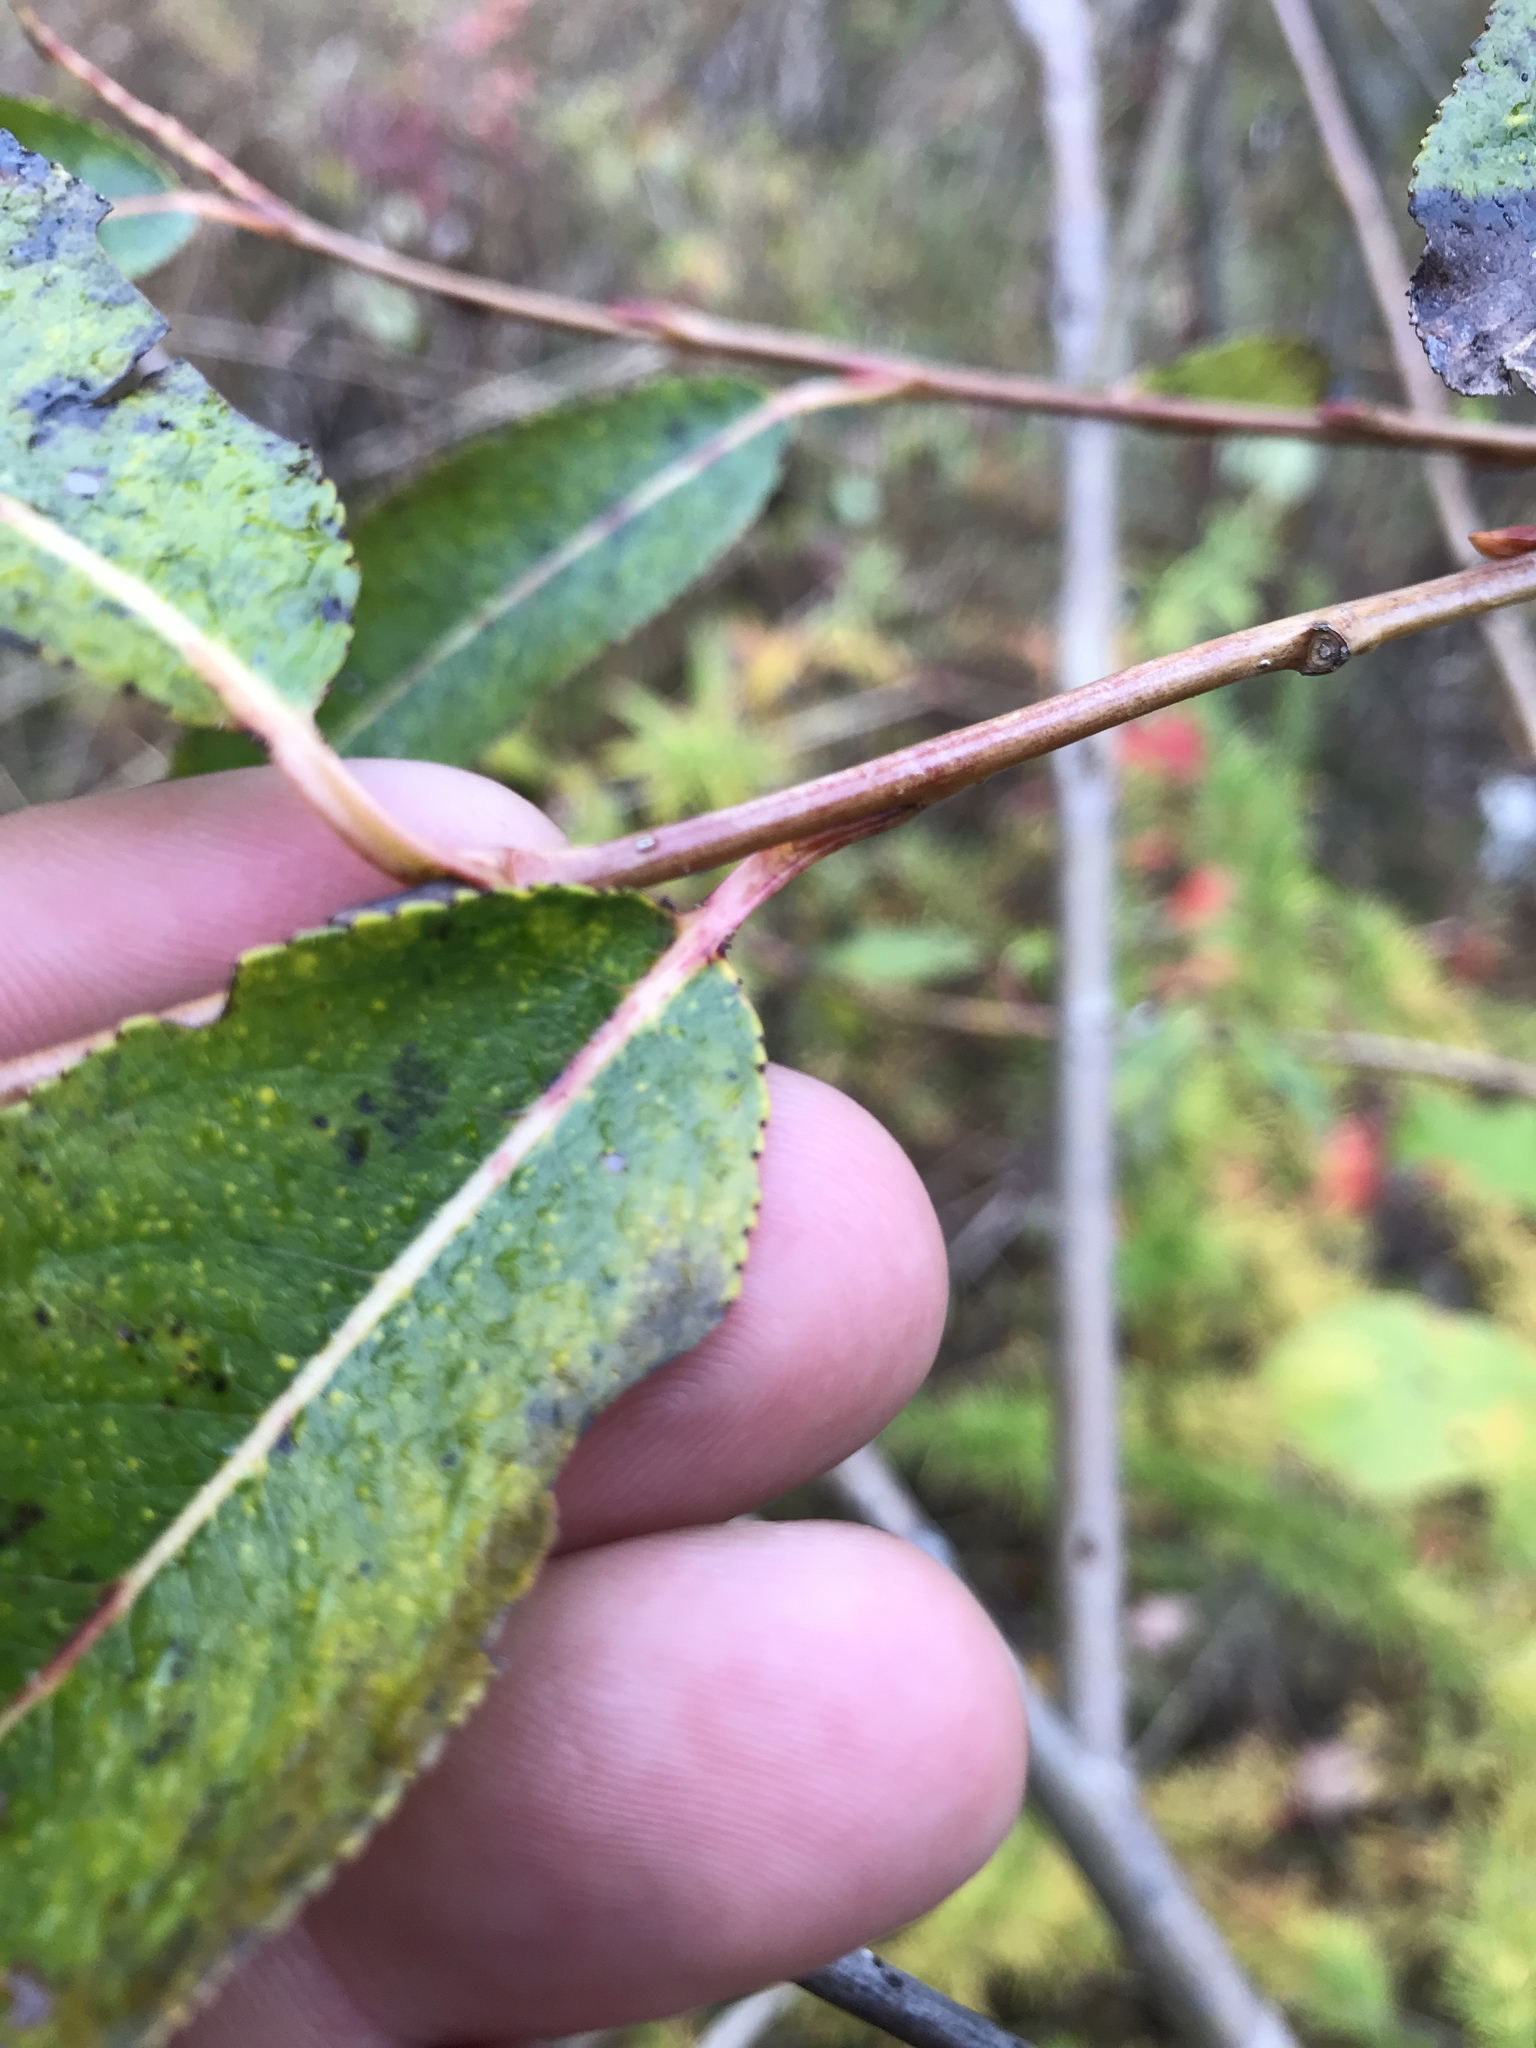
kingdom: Plantae
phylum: Tracheophyta
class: Magnoliopsida
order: Malpighiales
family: Salicaceae
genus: Salix
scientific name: Salix serissima
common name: Autumn willow
